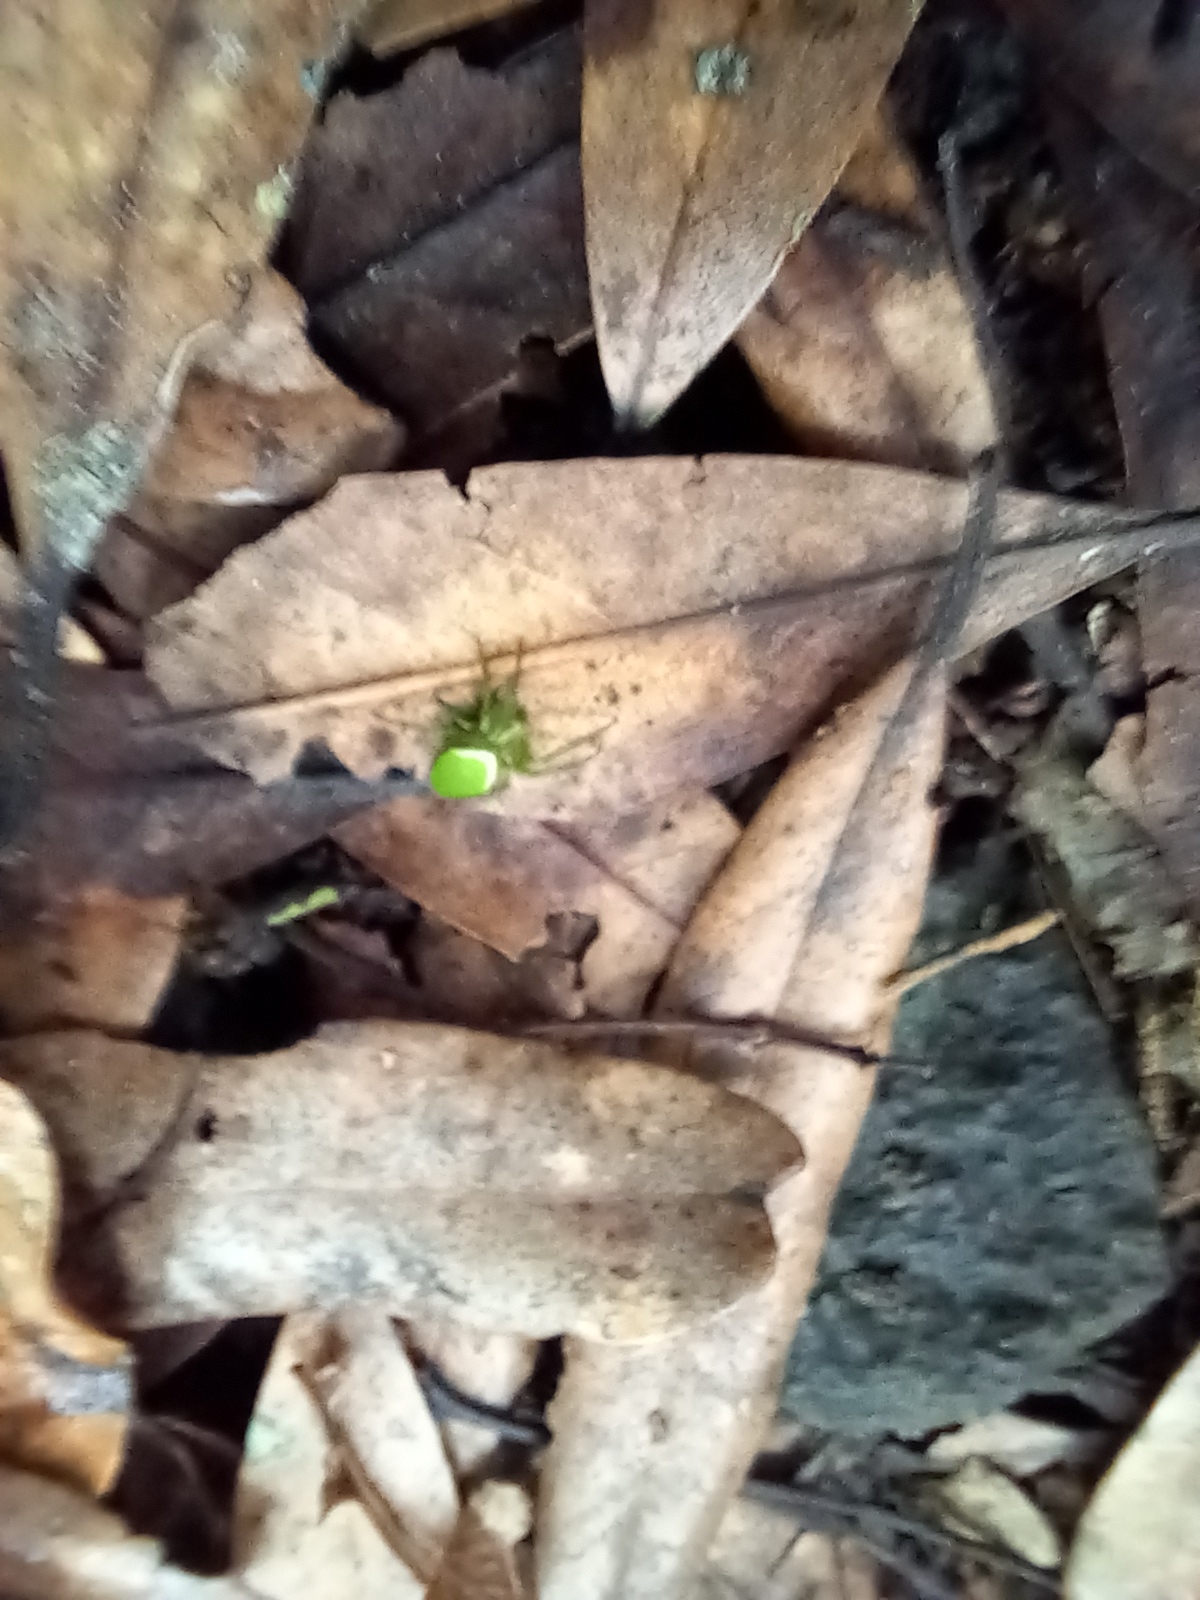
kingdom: Animalia
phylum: Arthropoda
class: Arachnida
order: Araneae
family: Araneidae
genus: Colaranea
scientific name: Colaranea viriditas
